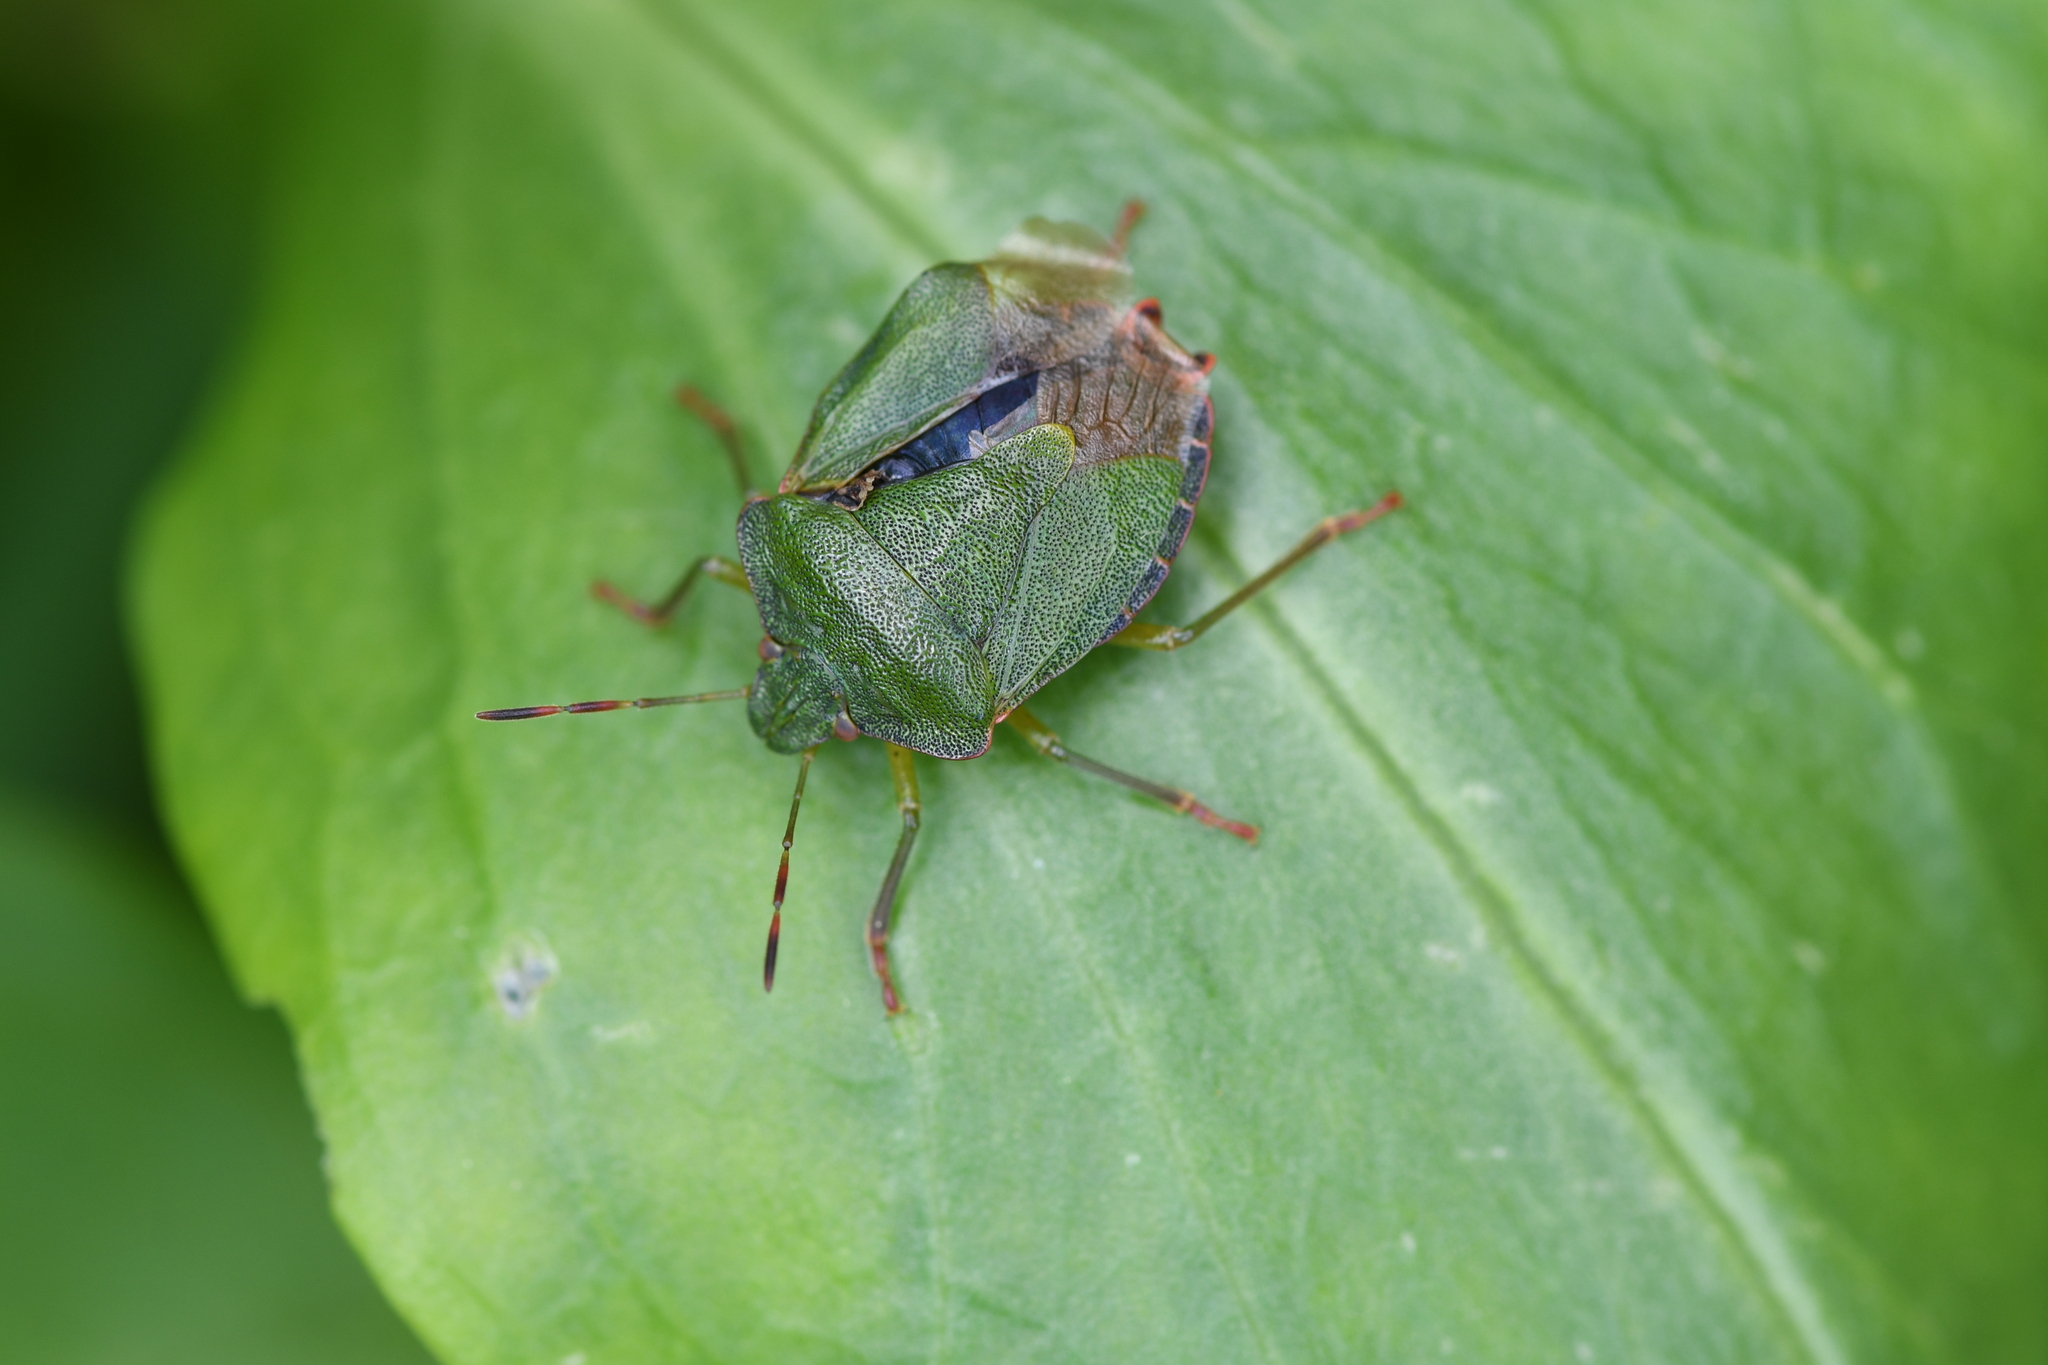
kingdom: Animalia
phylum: Arthropoda
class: Insecta
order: Hemiptera
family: Pentatomidae
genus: Palomena
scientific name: Palomena prasina
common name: Green shieldbug
